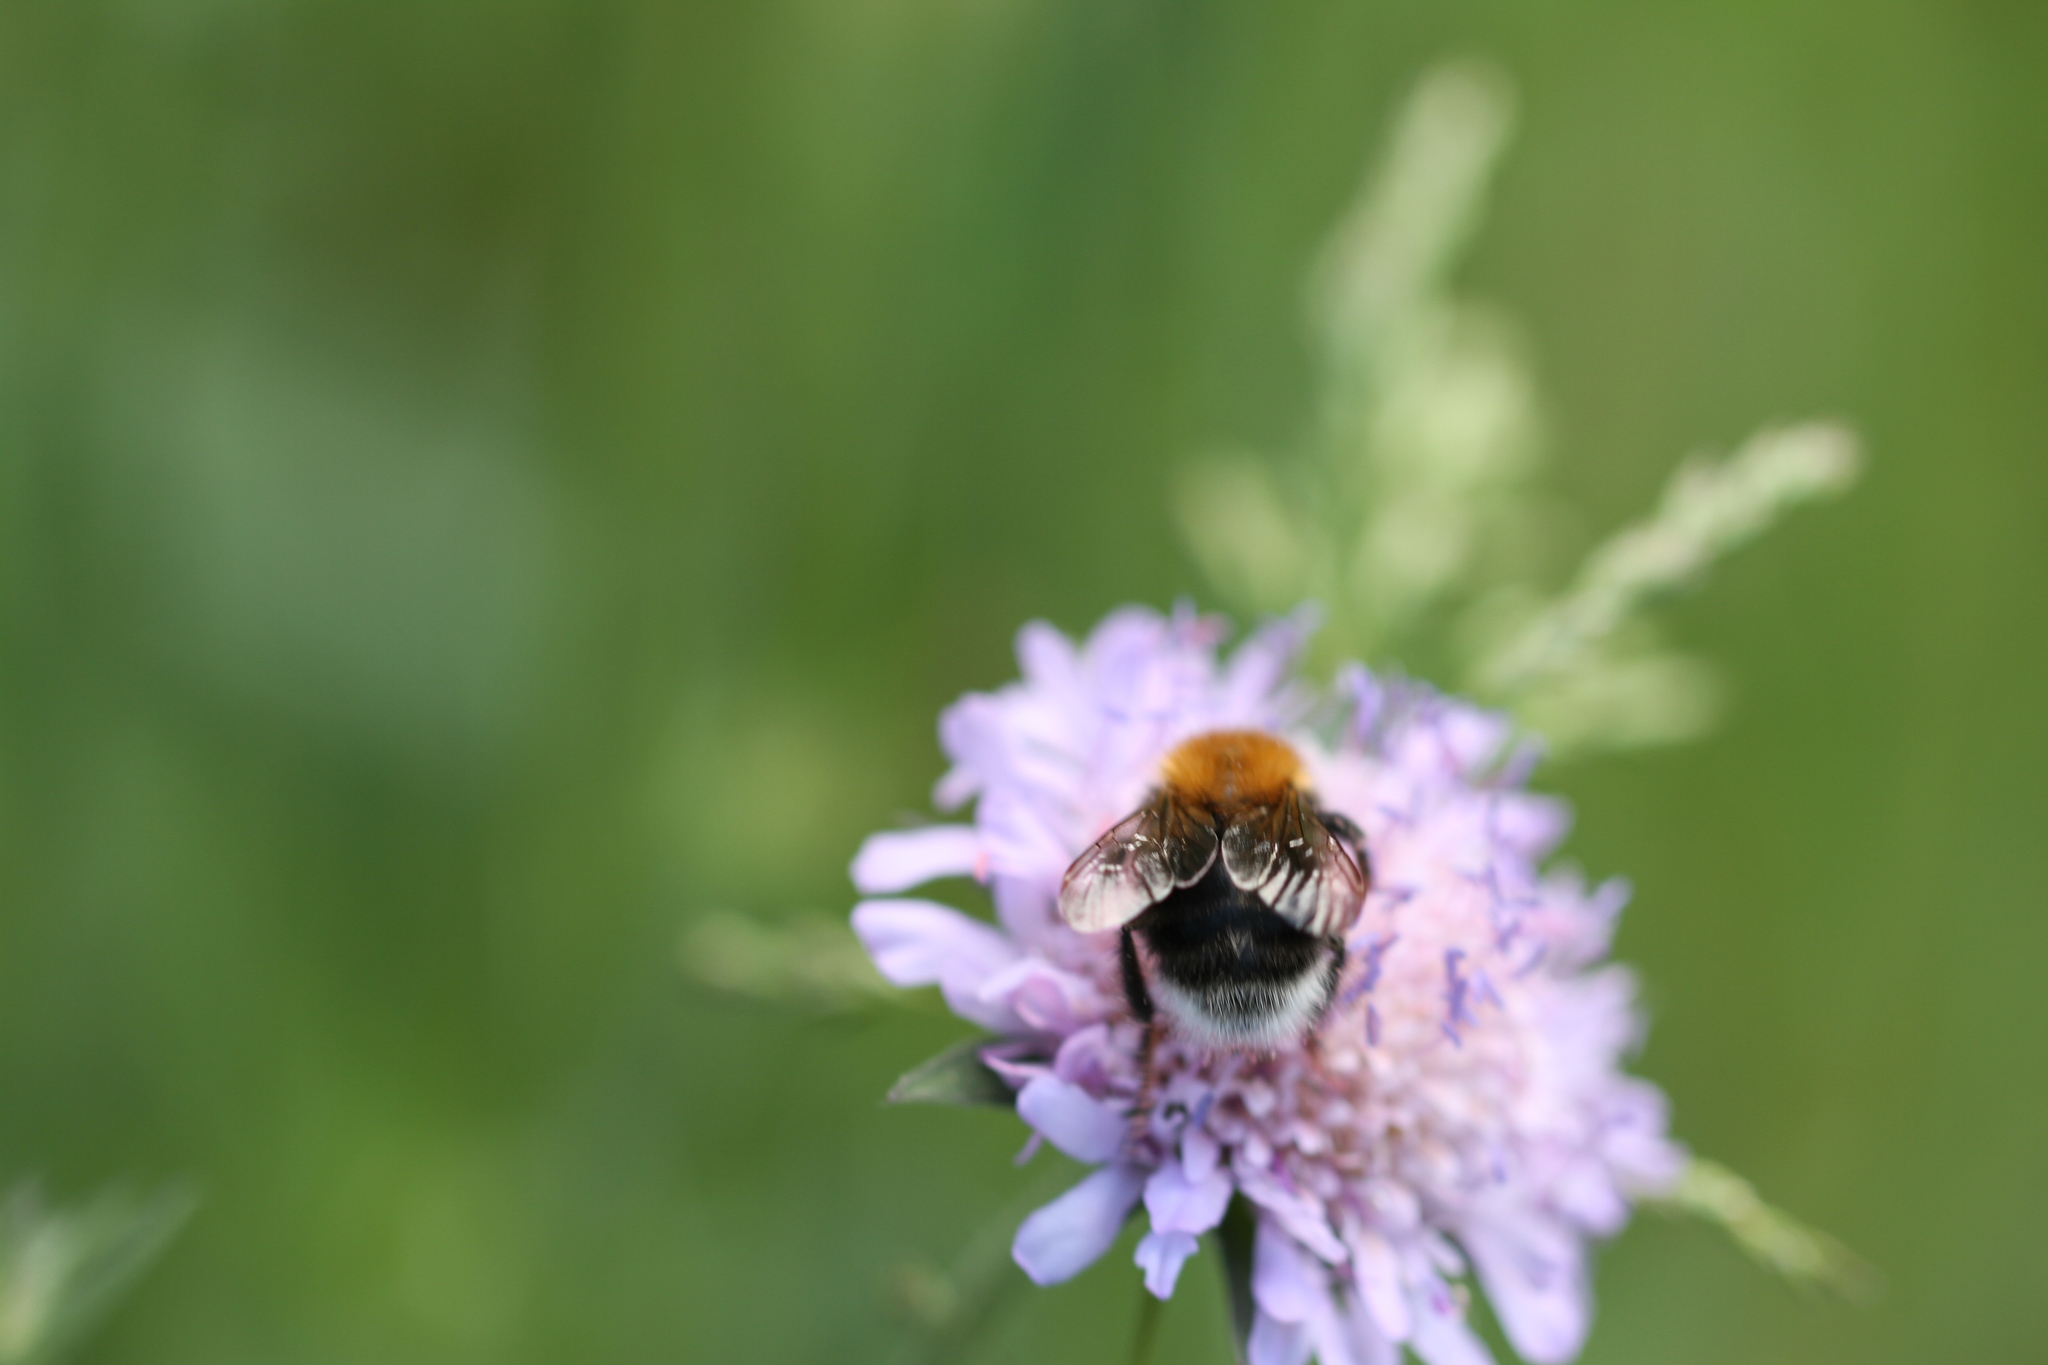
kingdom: Animalia
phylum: Arthropoda
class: Insecta
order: Hymenoptera
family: Apidae
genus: Bombus
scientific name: Bombus hypnorum
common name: New garden bumblebee
